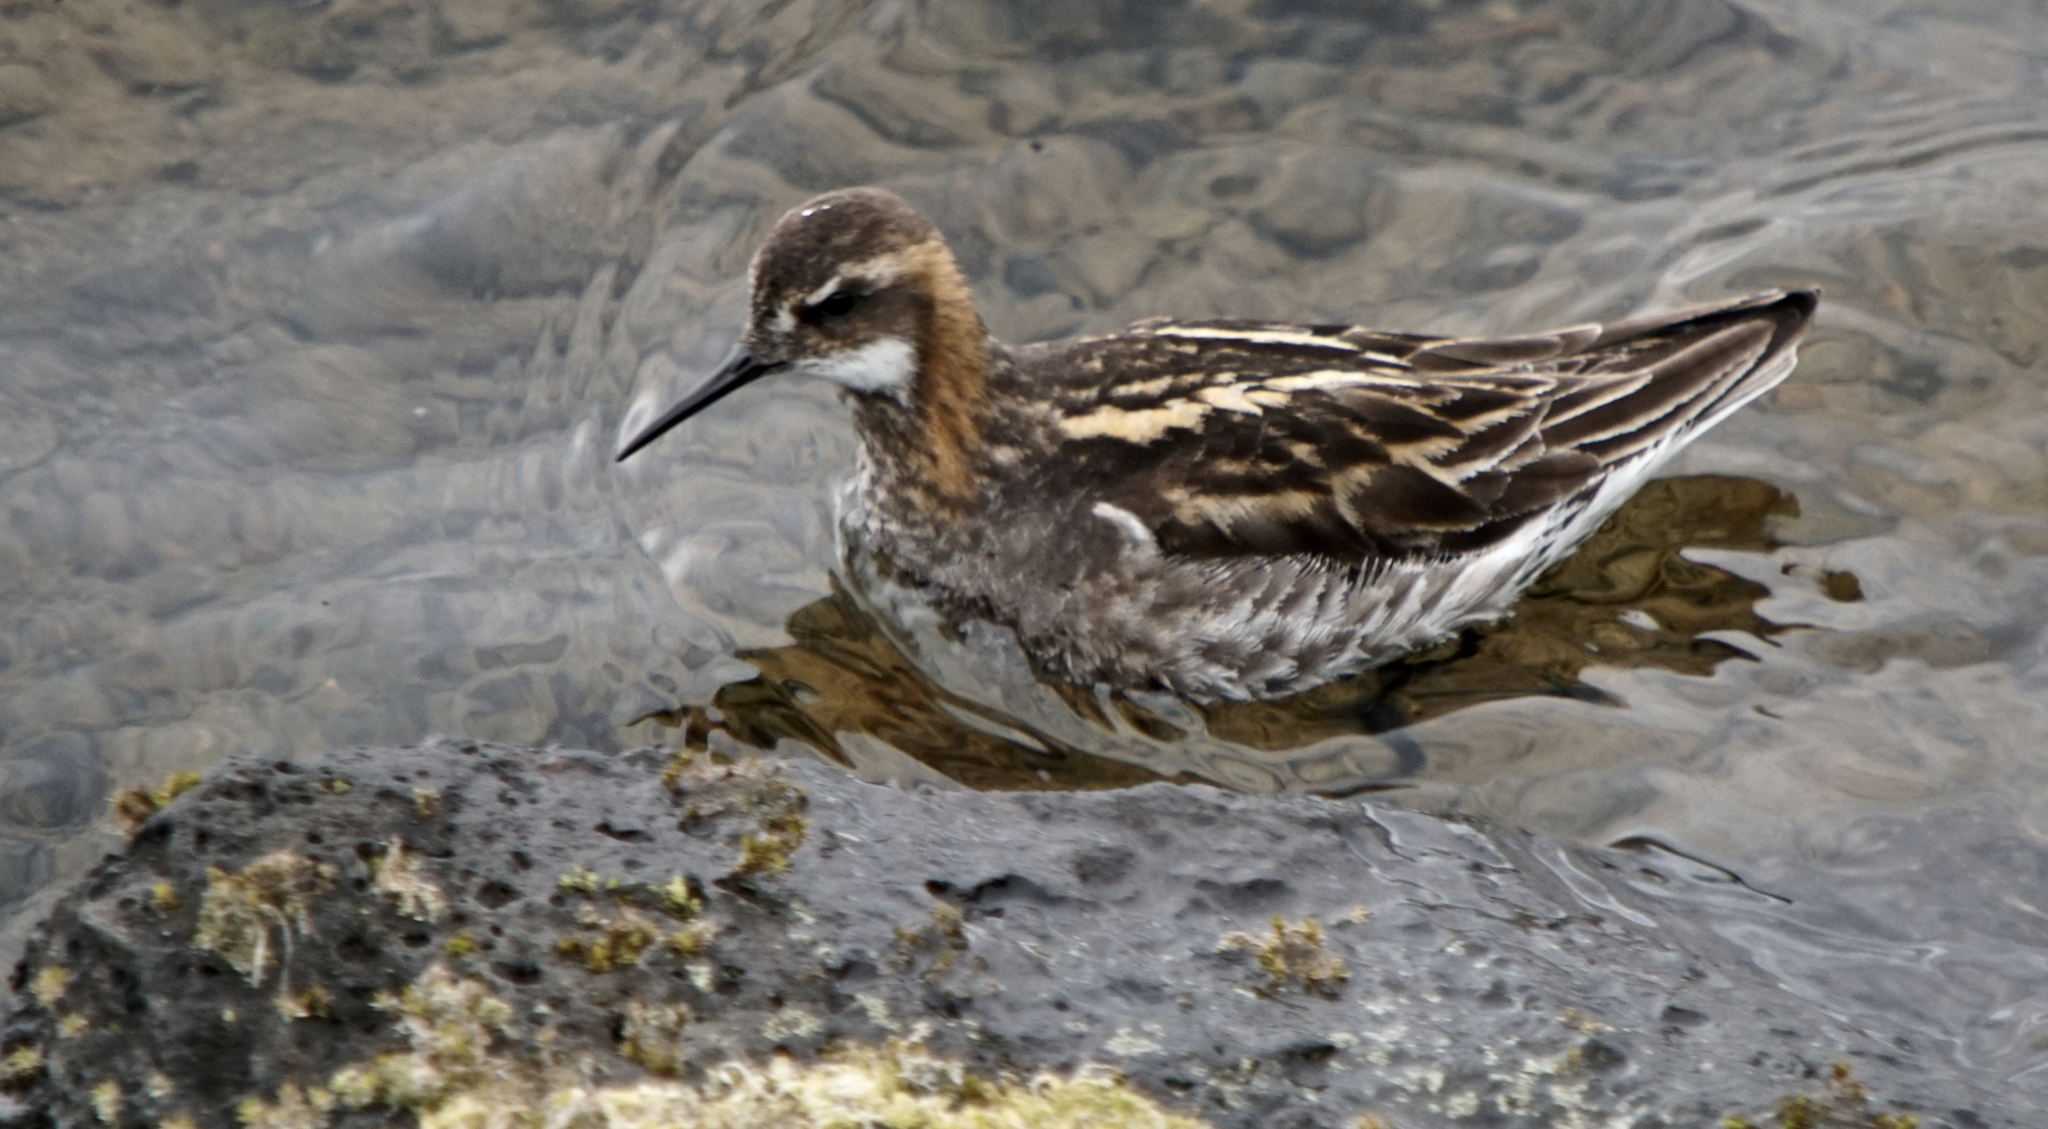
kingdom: Animalia
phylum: Chordata
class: Aves
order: Charadriiformes
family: Scolopacidae
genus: Phalaropus
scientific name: Phalaropus lobatus
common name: Red-necked phalarope
